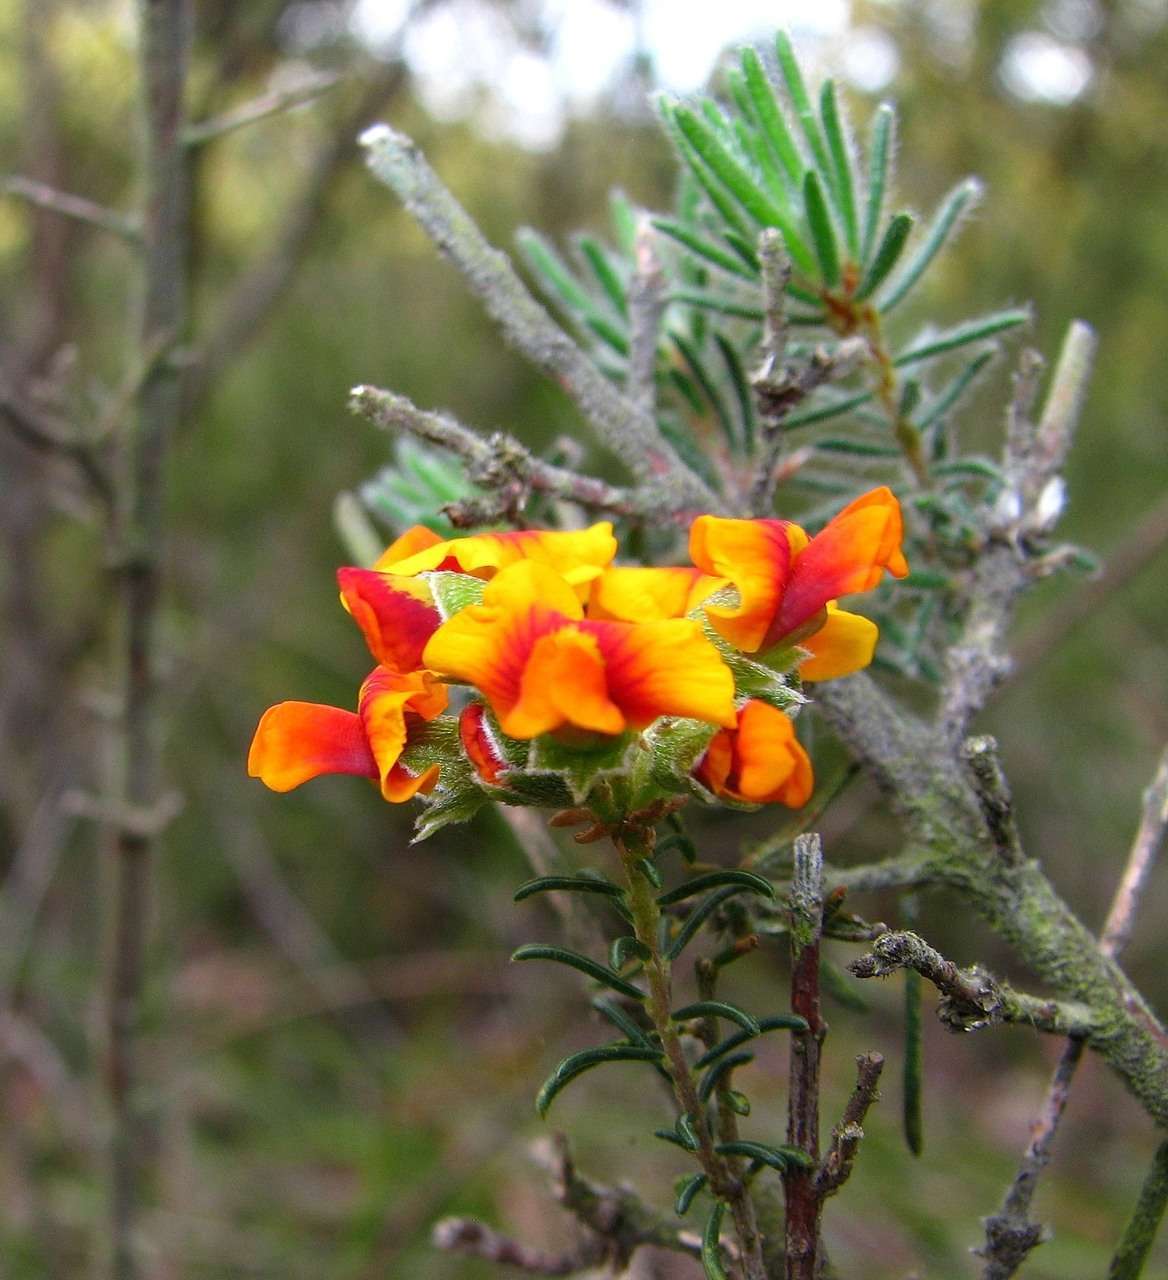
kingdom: Plantae
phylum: Tracheophyta
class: Magnoliopsida
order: Fabales
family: Fabaceae
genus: Dillwynia
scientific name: Dillwynia cinerascens
